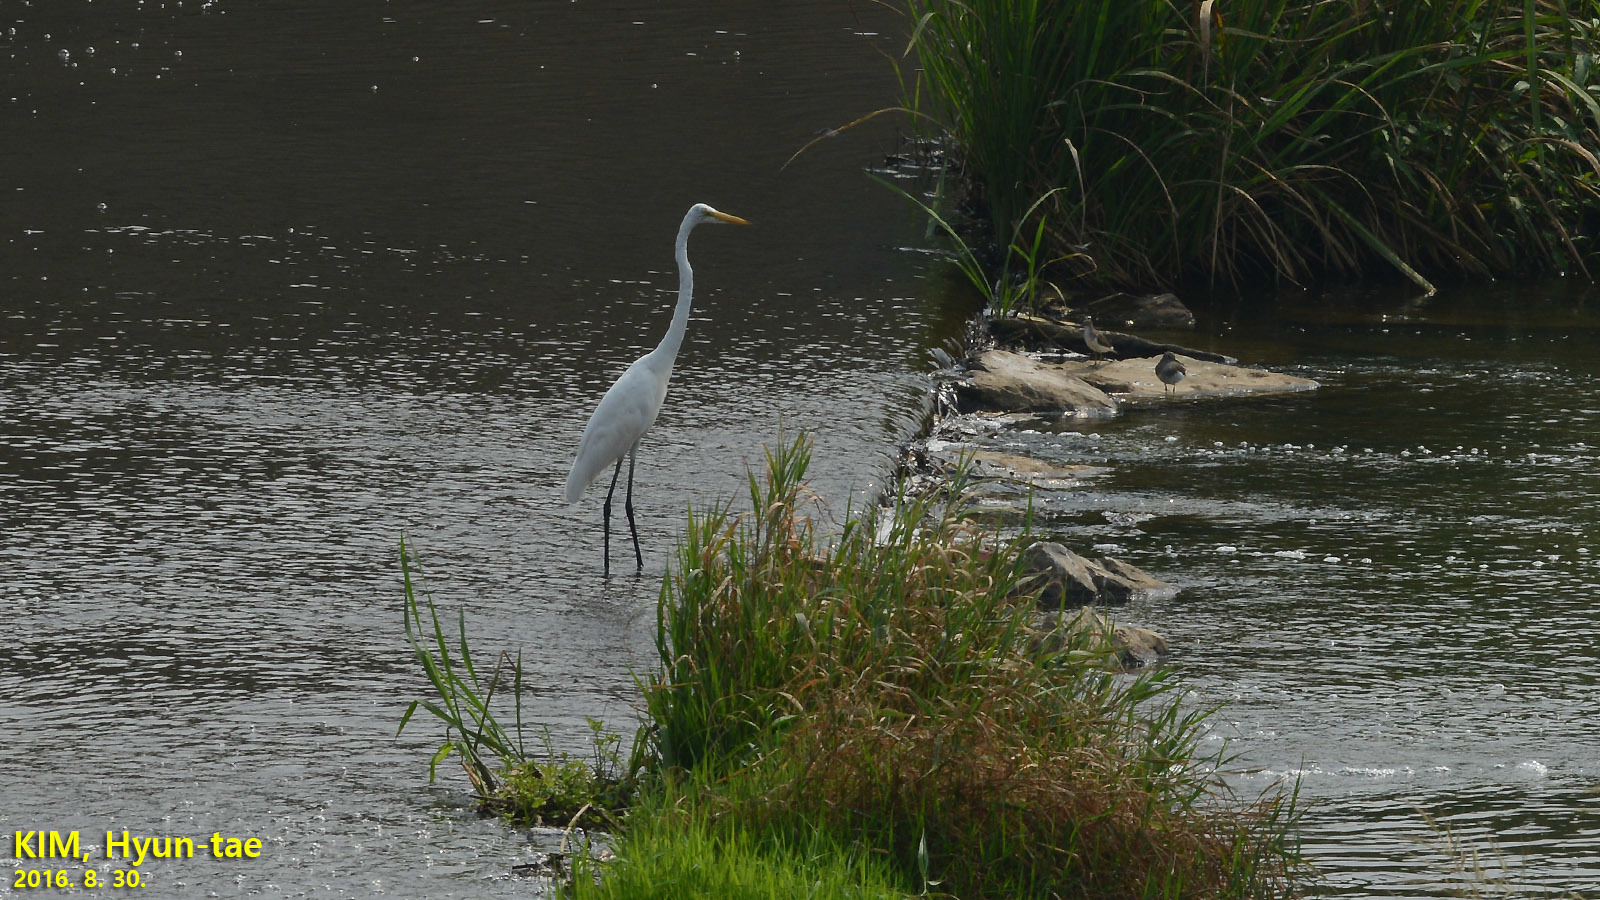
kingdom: Animalia
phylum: Chordata
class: Aves
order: Pelecaniformes
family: Ardeidae
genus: Ardea
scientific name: Ardea modesta
